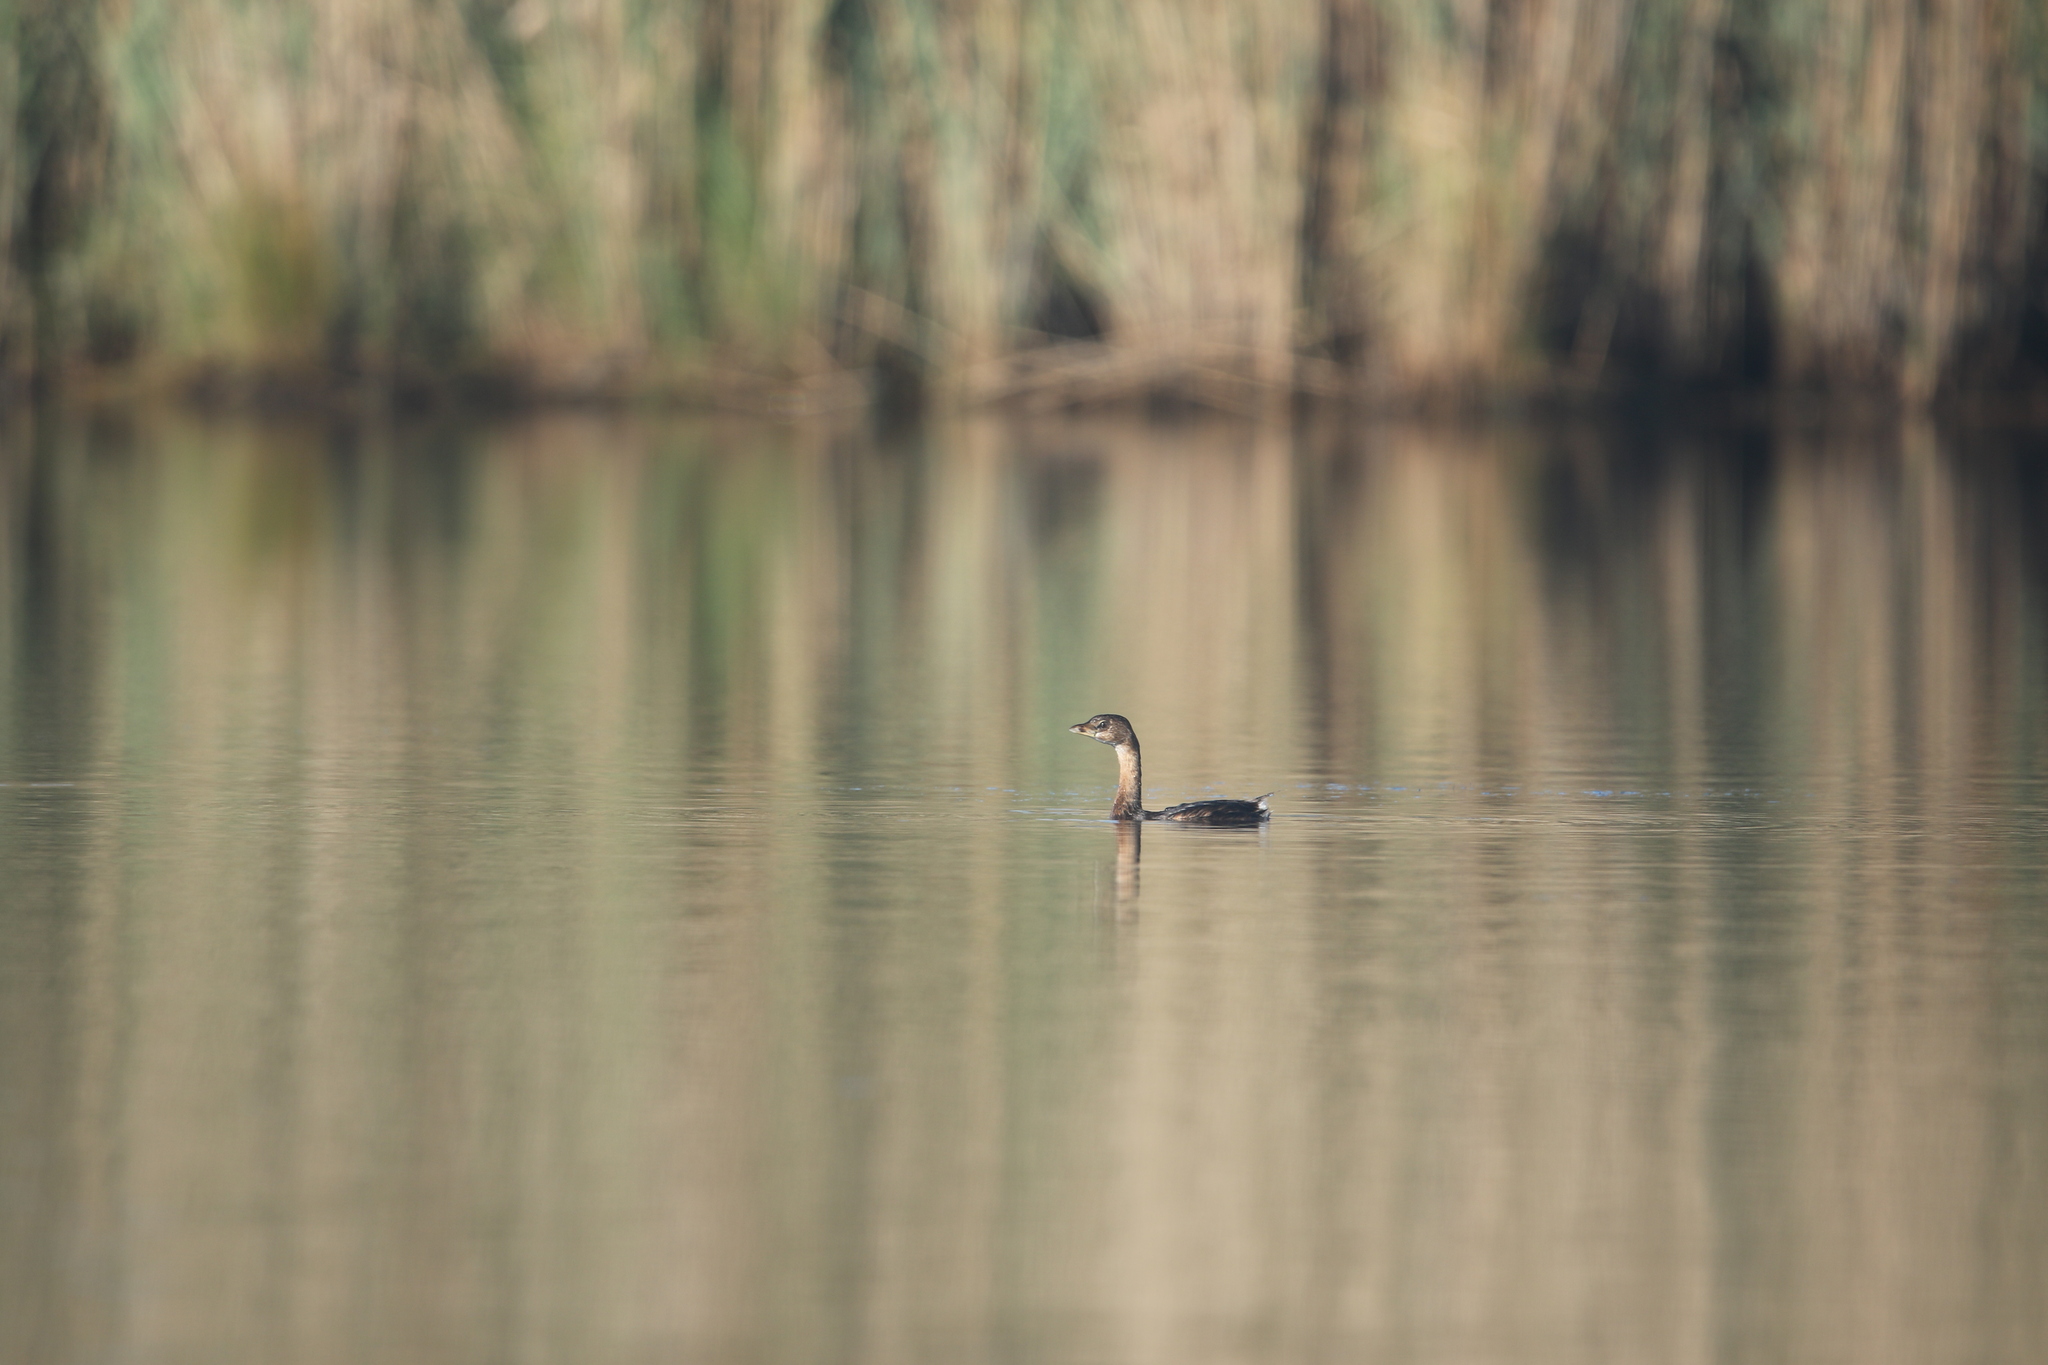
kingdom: Animalia
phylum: Chordata
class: Aves
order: Podicipediformes
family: Podicipedidae
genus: Podilymbus
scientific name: Podilymbus podiceps
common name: Pied-billed grebe
